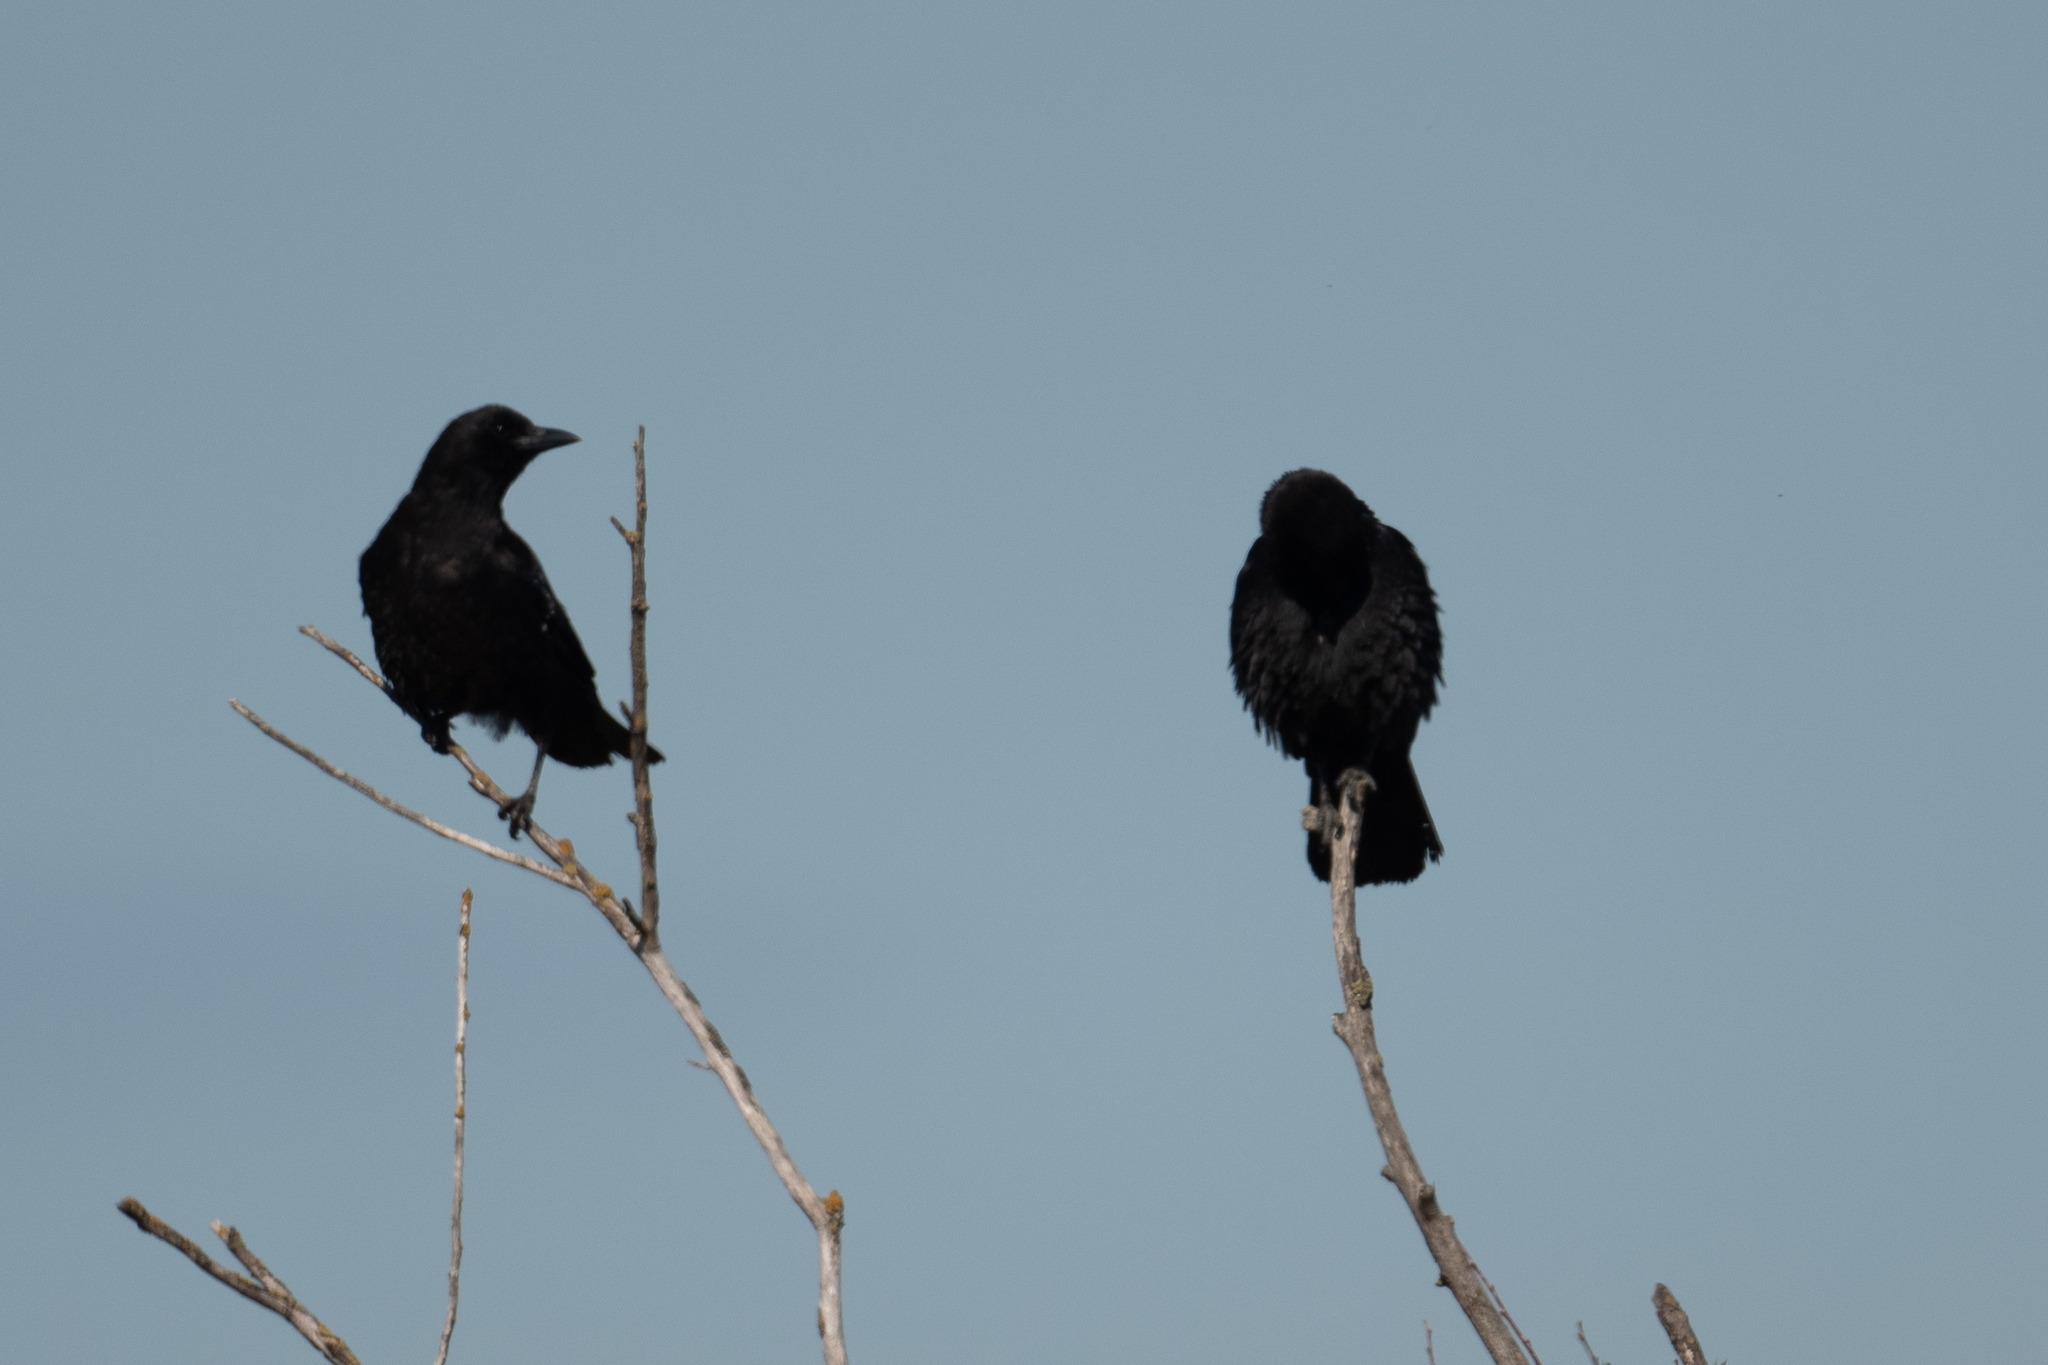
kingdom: Animalia
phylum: Chordata
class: Aves
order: Passeriformes
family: Corvidae
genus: Corvus
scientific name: Corvus brachyrhynchos
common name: American crow
